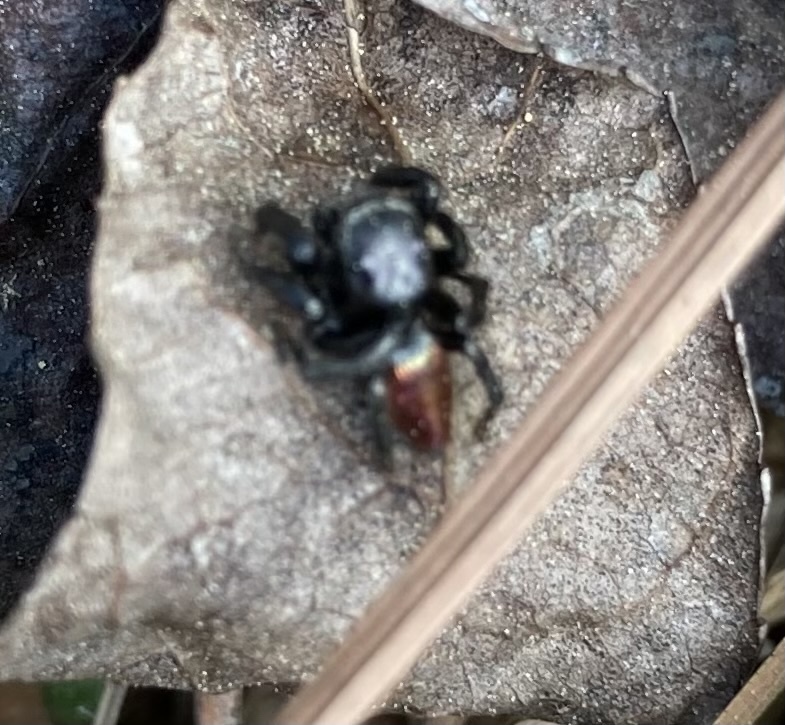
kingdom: Animalia
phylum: Arthropoda
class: Arachnida
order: Araneae
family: Salticidae
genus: Habronattus
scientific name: Habronattus decorus
